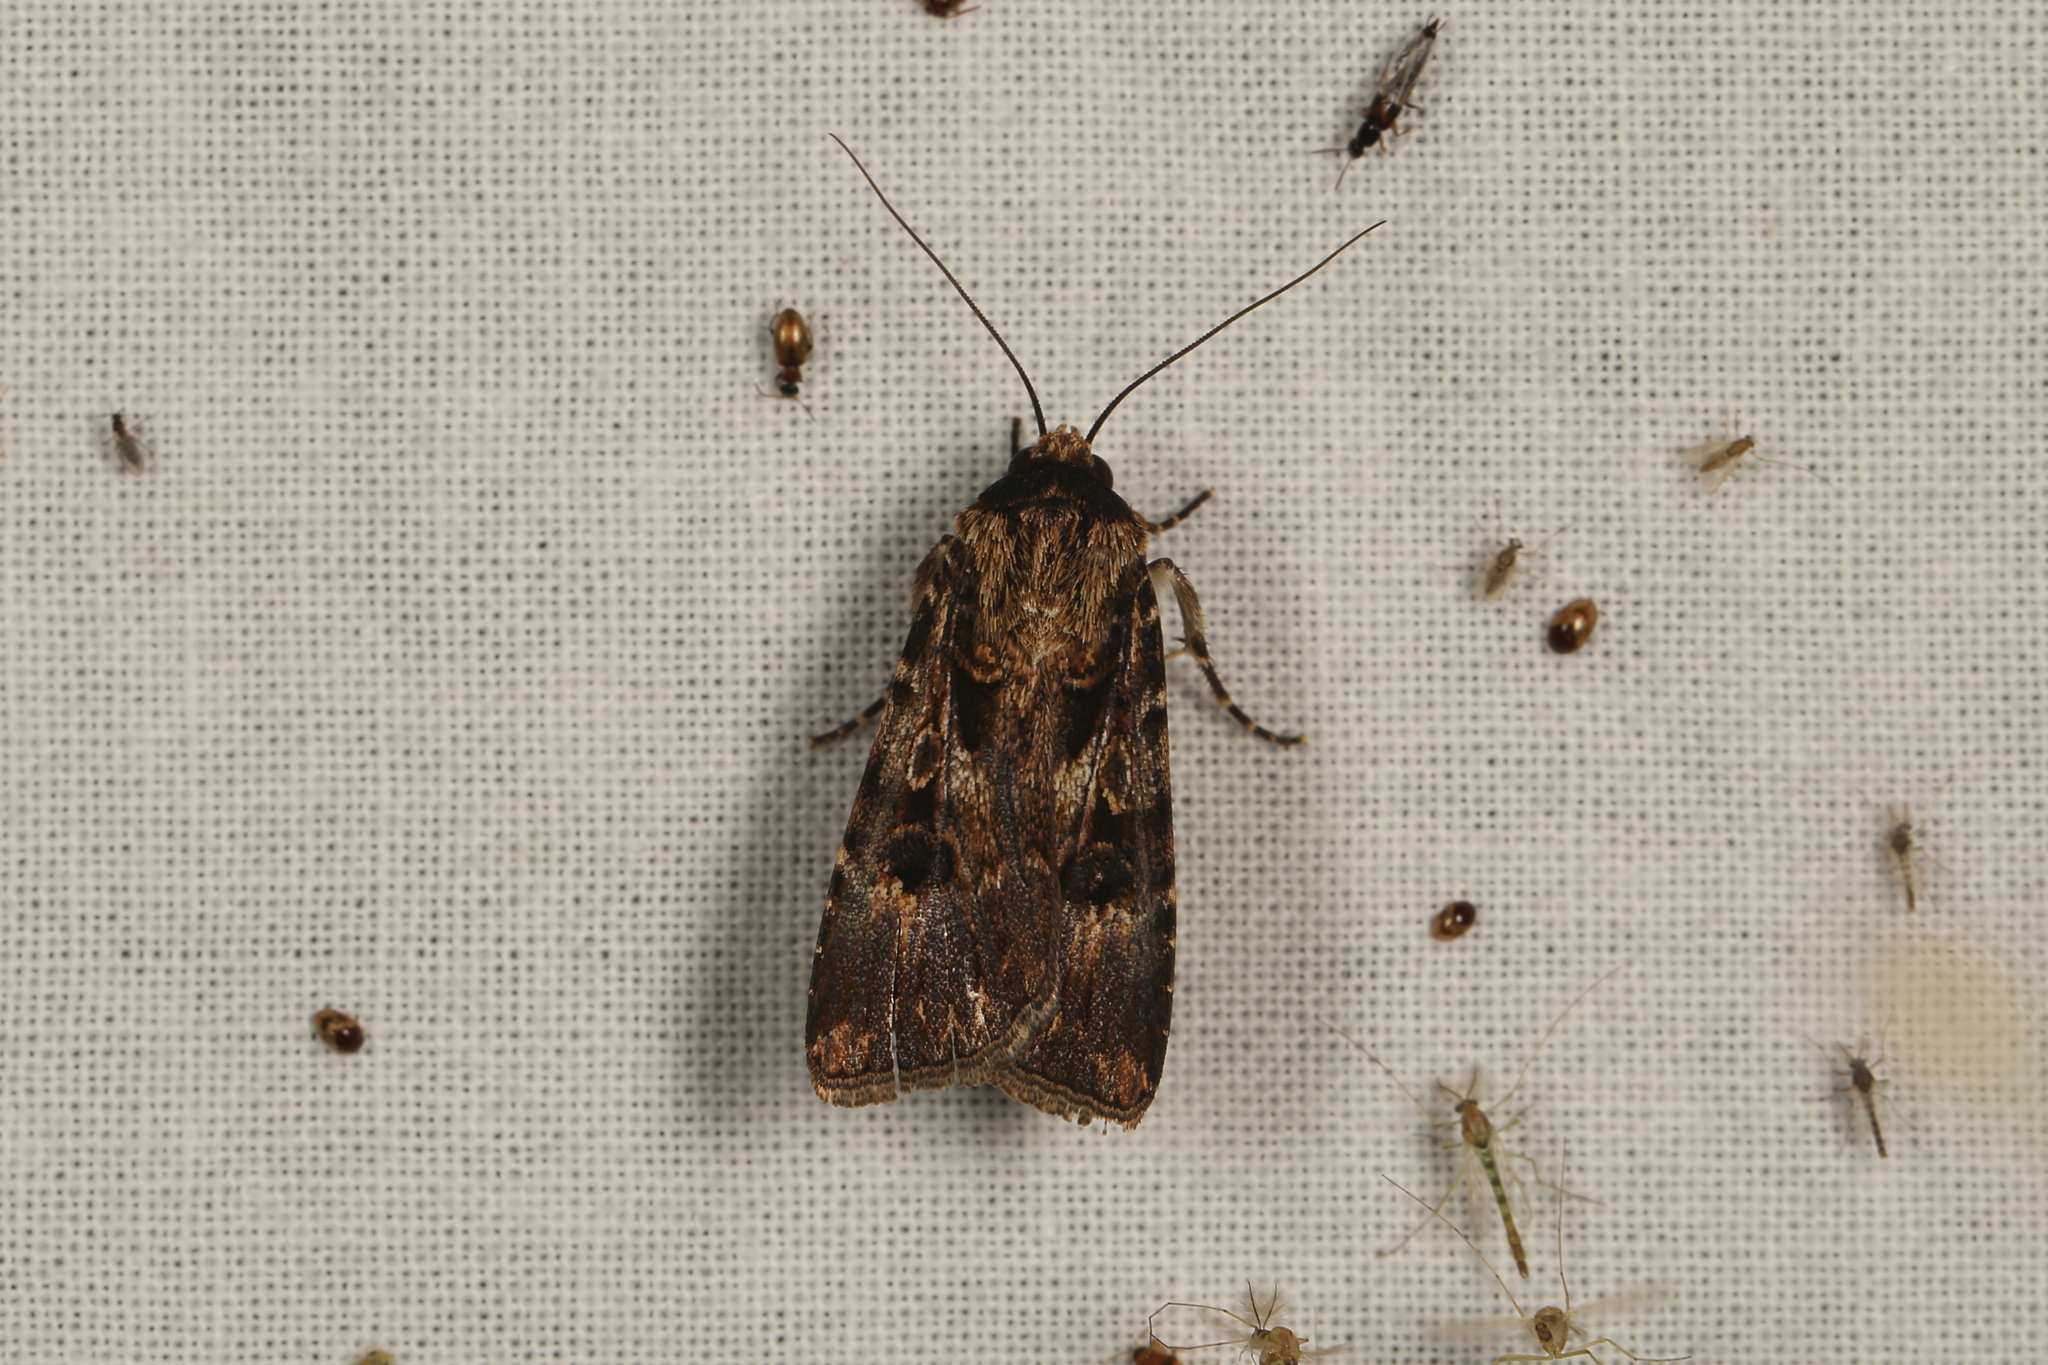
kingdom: Animalia
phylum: Arthropoda
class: Insecta
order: Lepidoptera
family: Noctuidae
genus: Agrotis
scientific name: Agrotis munda
